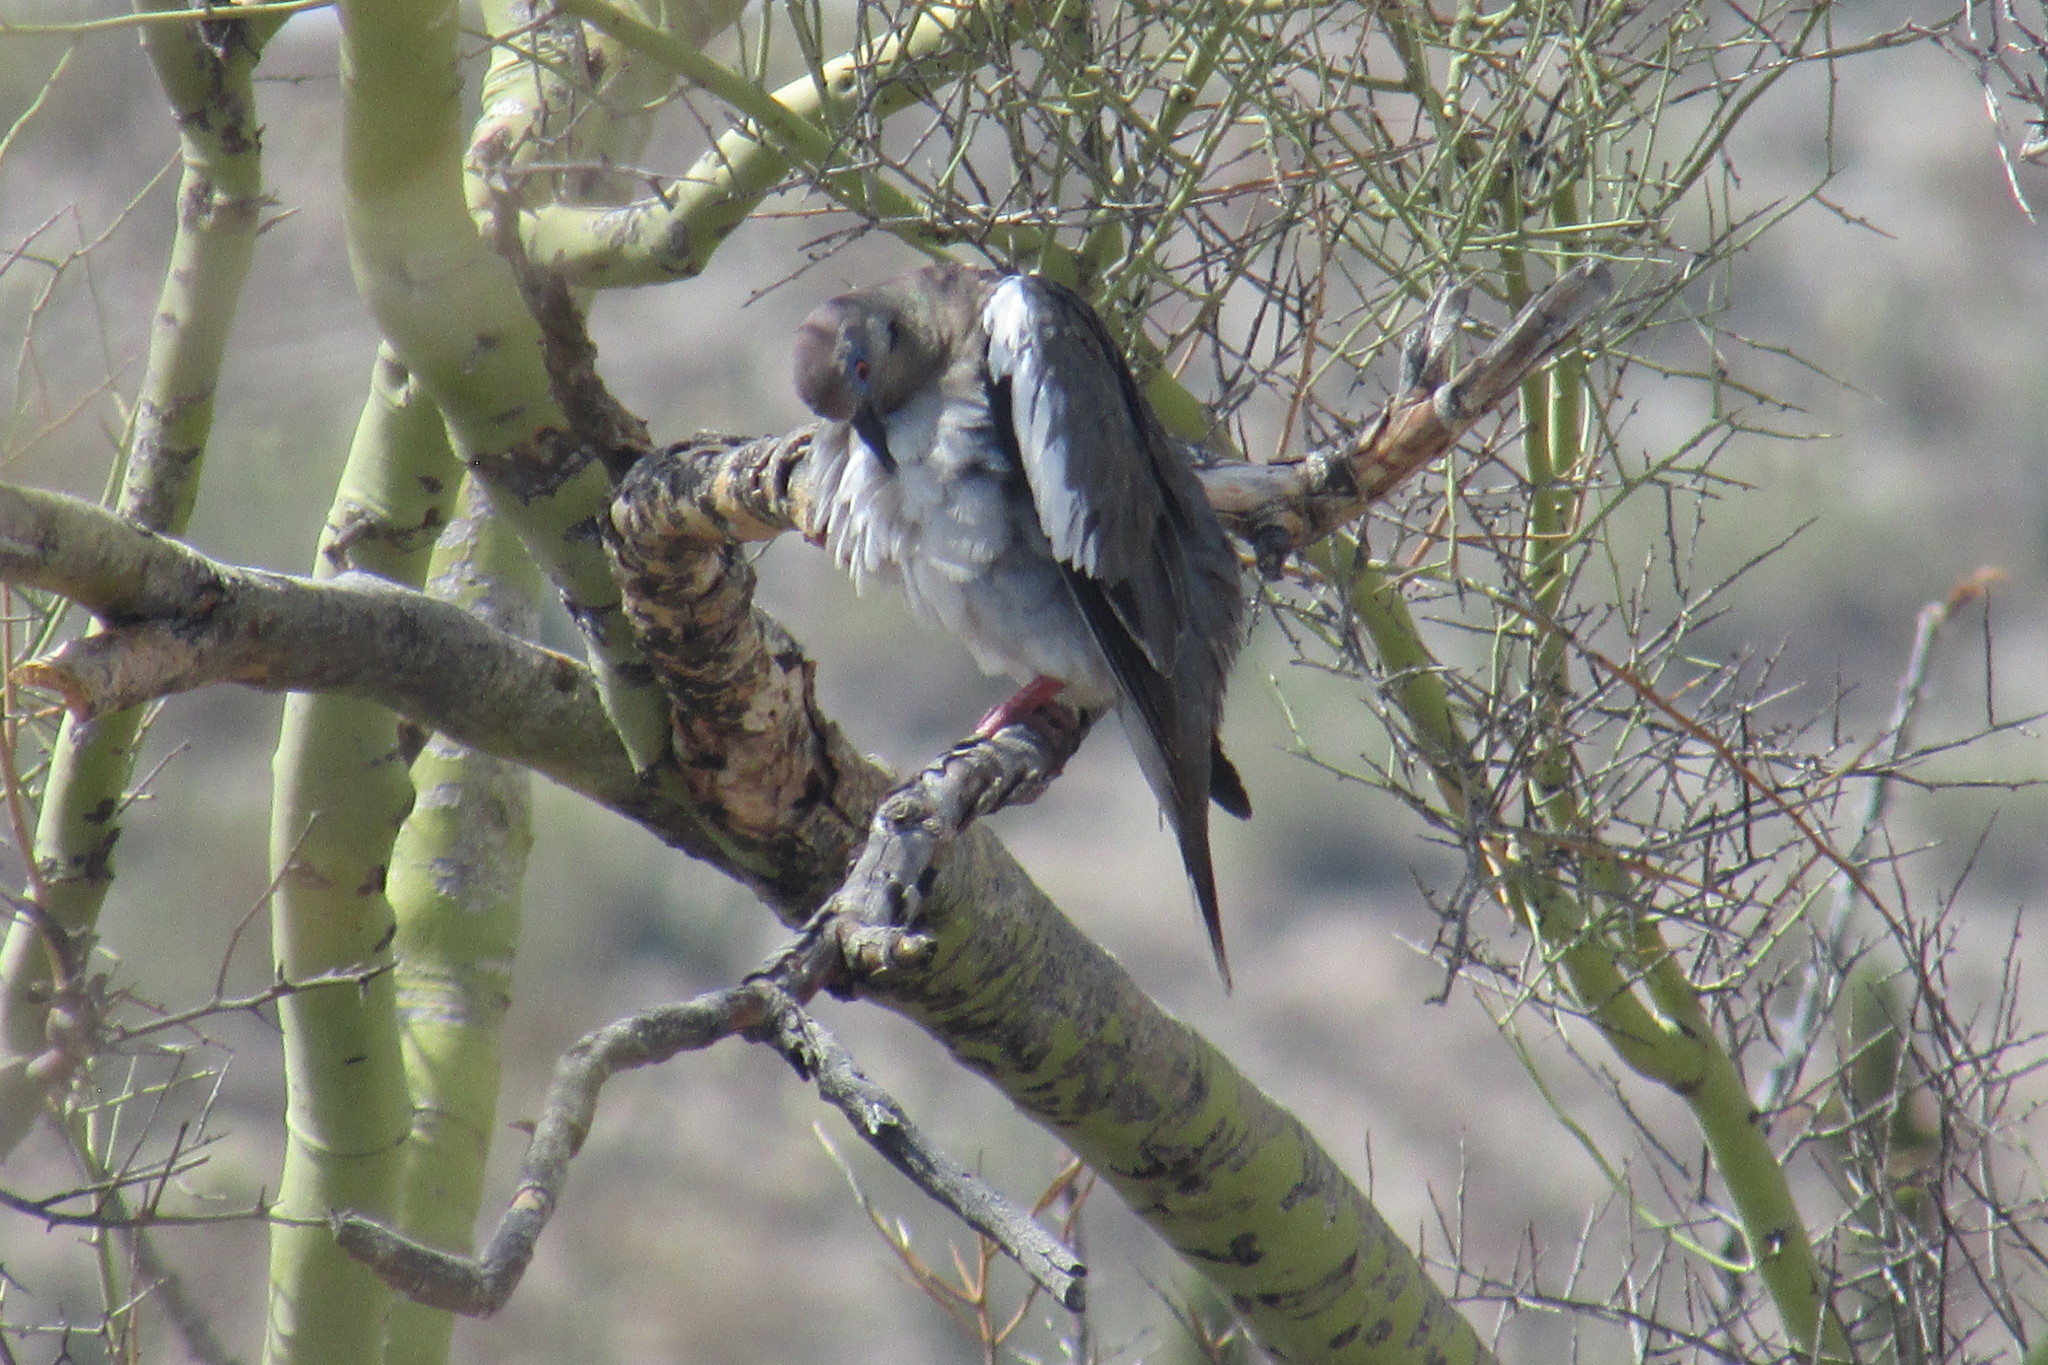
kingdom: Animalia
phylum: Chordata
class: Aves
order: Columbiformes
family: Columbidae
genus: Zenaida
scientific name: Zenaida asiatica
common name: White-winged dove
